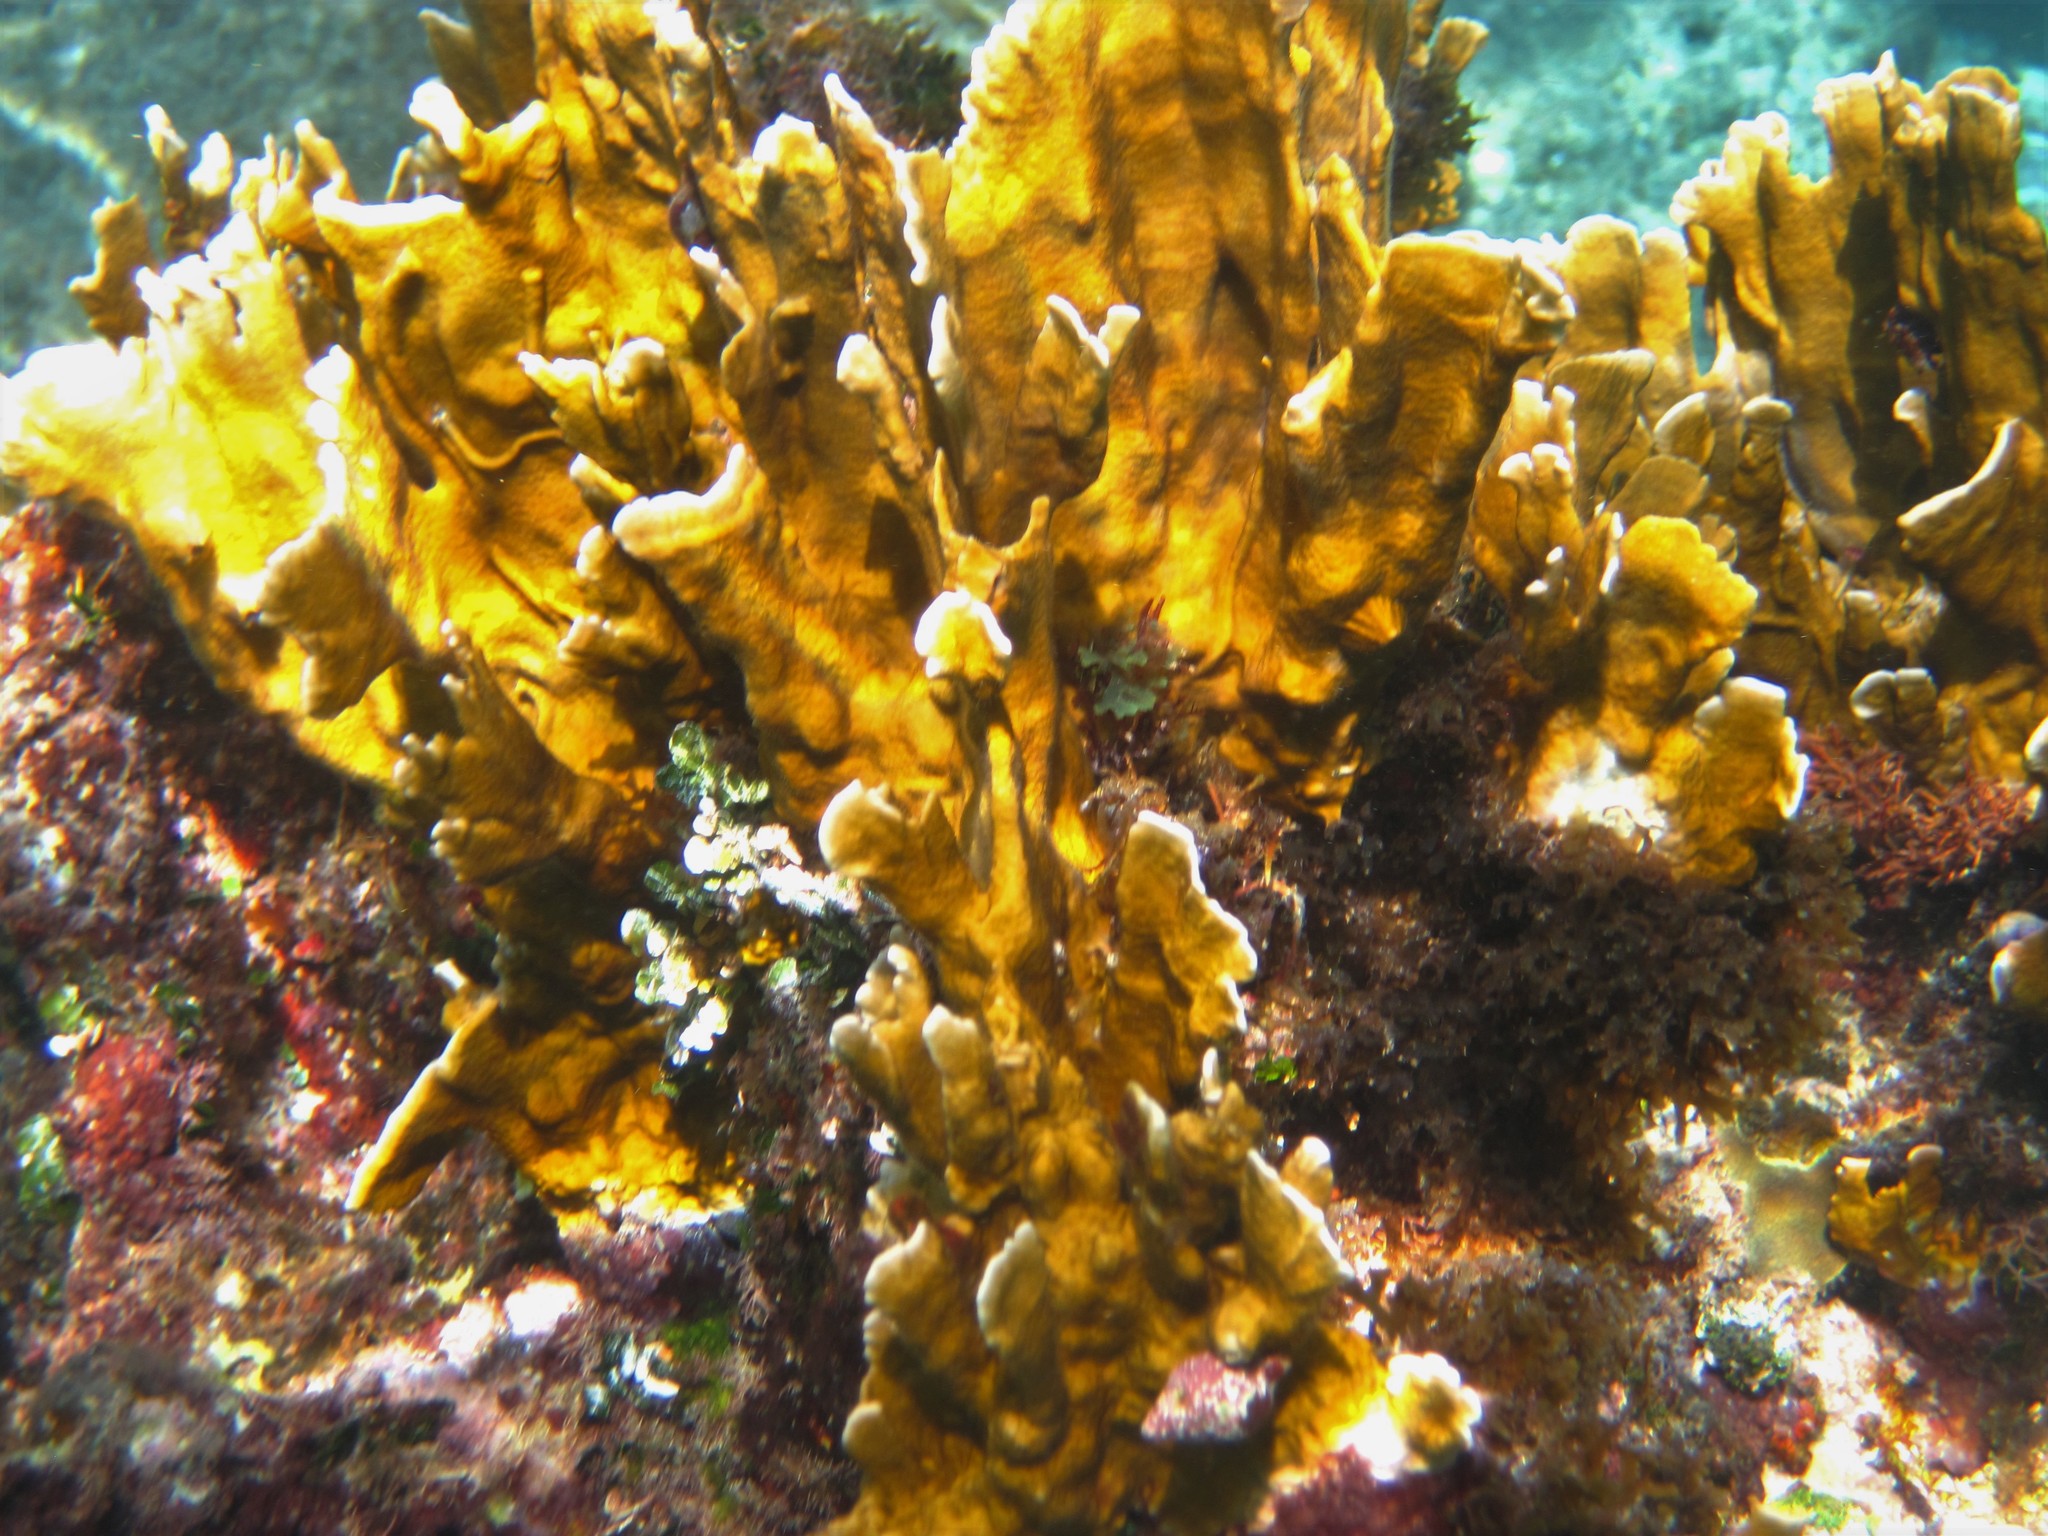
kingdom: Animalia
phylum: Cnidaria
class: Hydrozoa
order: Anthoathecata
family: Milleporidae
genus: Millepora
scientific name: Millepora complanata
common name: Bladed fire coral
